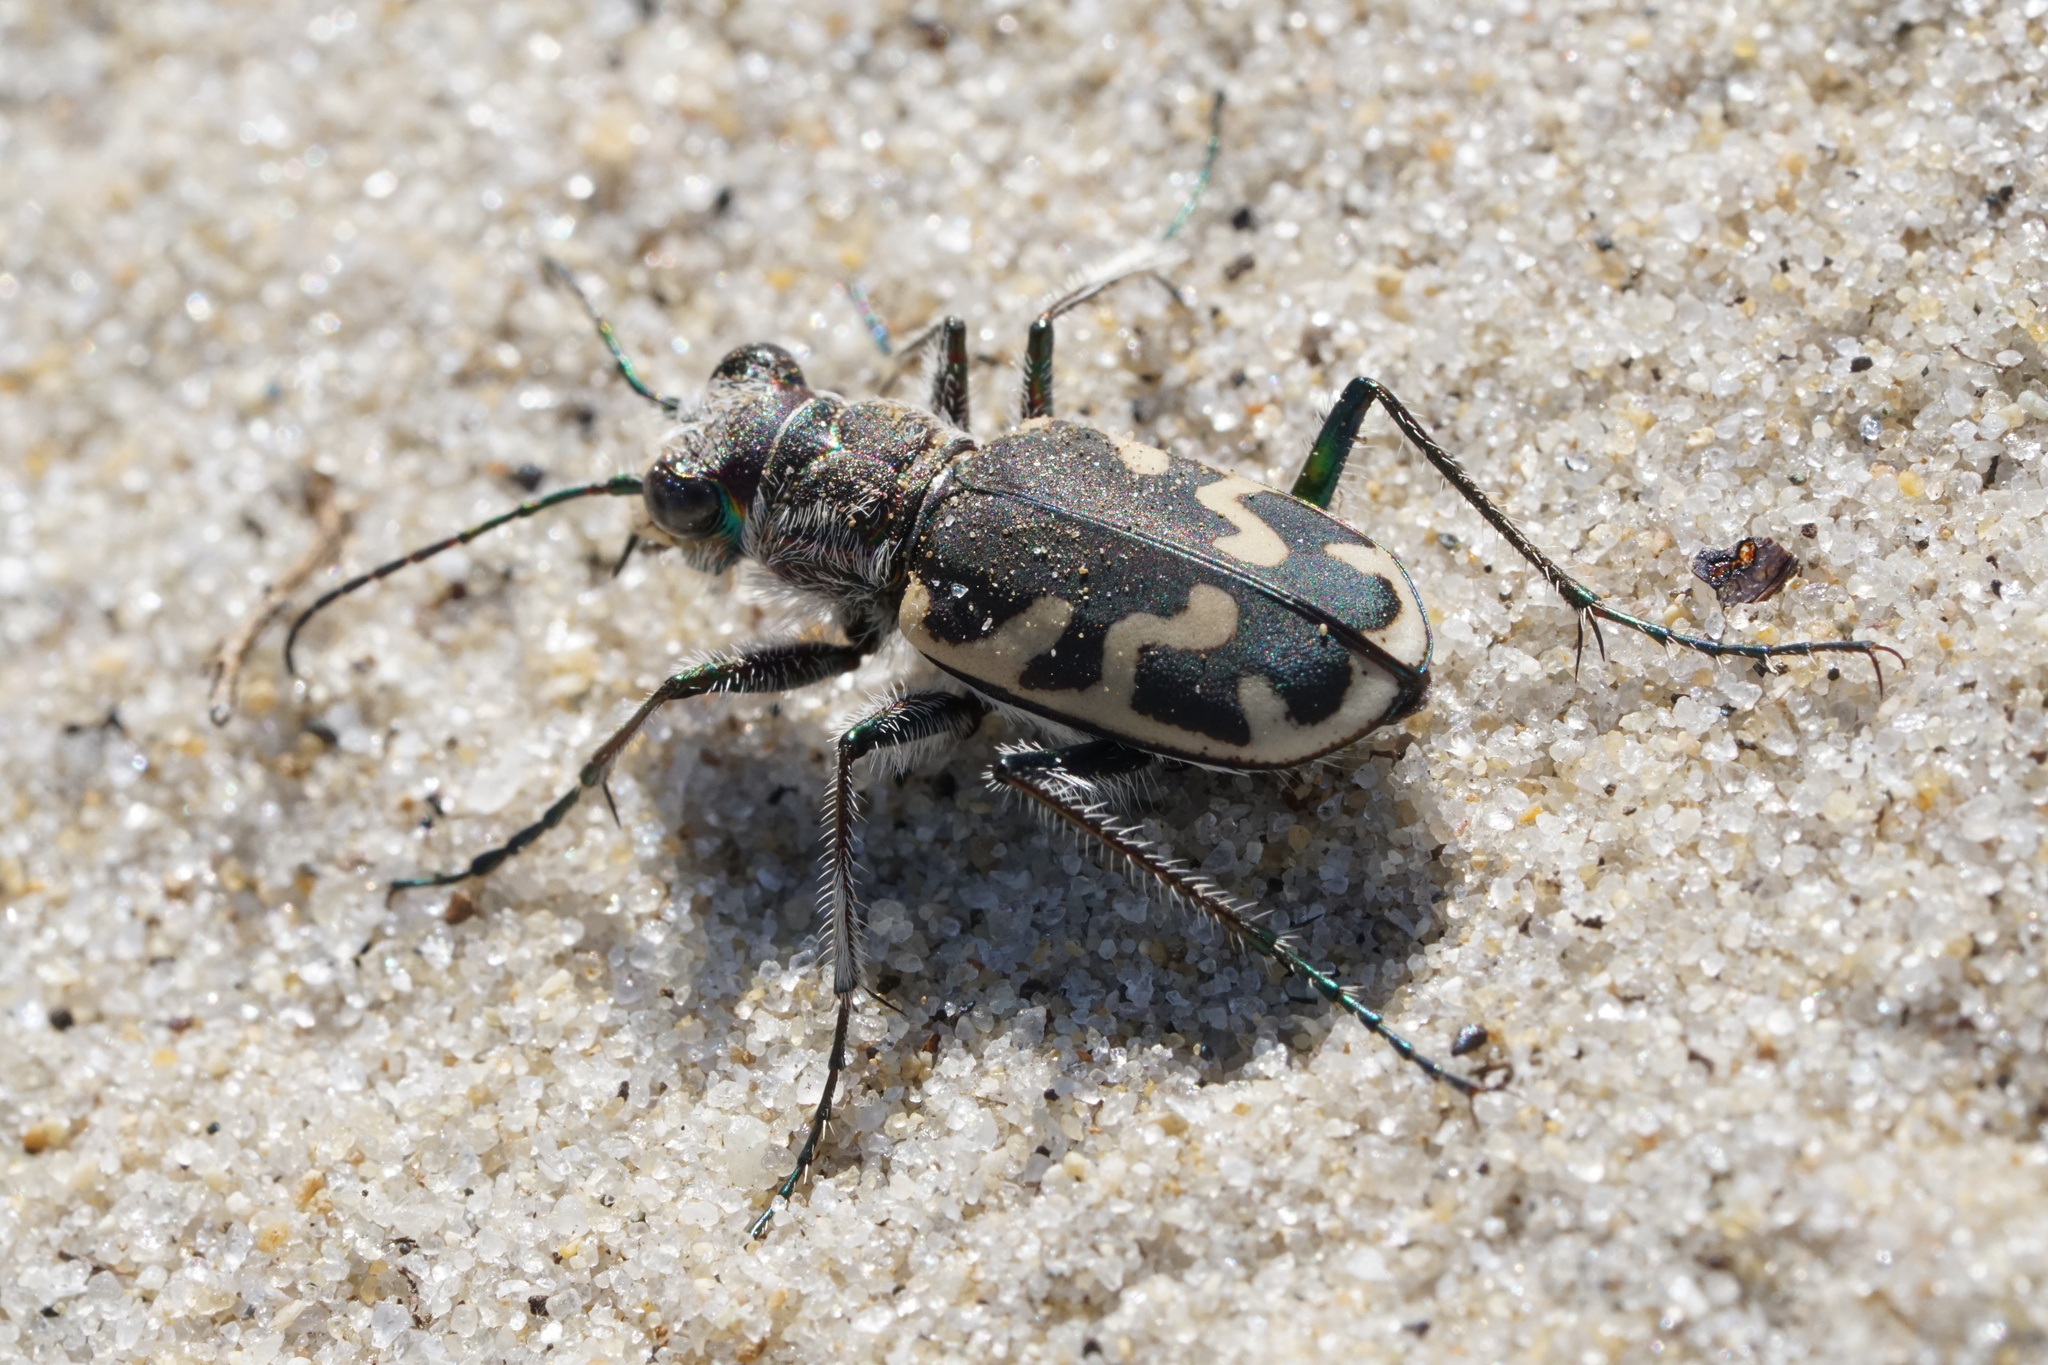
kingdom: Animalia
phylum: Arthropoda
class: Insecta
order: Coleoptera
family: Carabidae
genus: Cicindela
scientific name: Cicindela formosa
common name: Big sand tiger beetle
